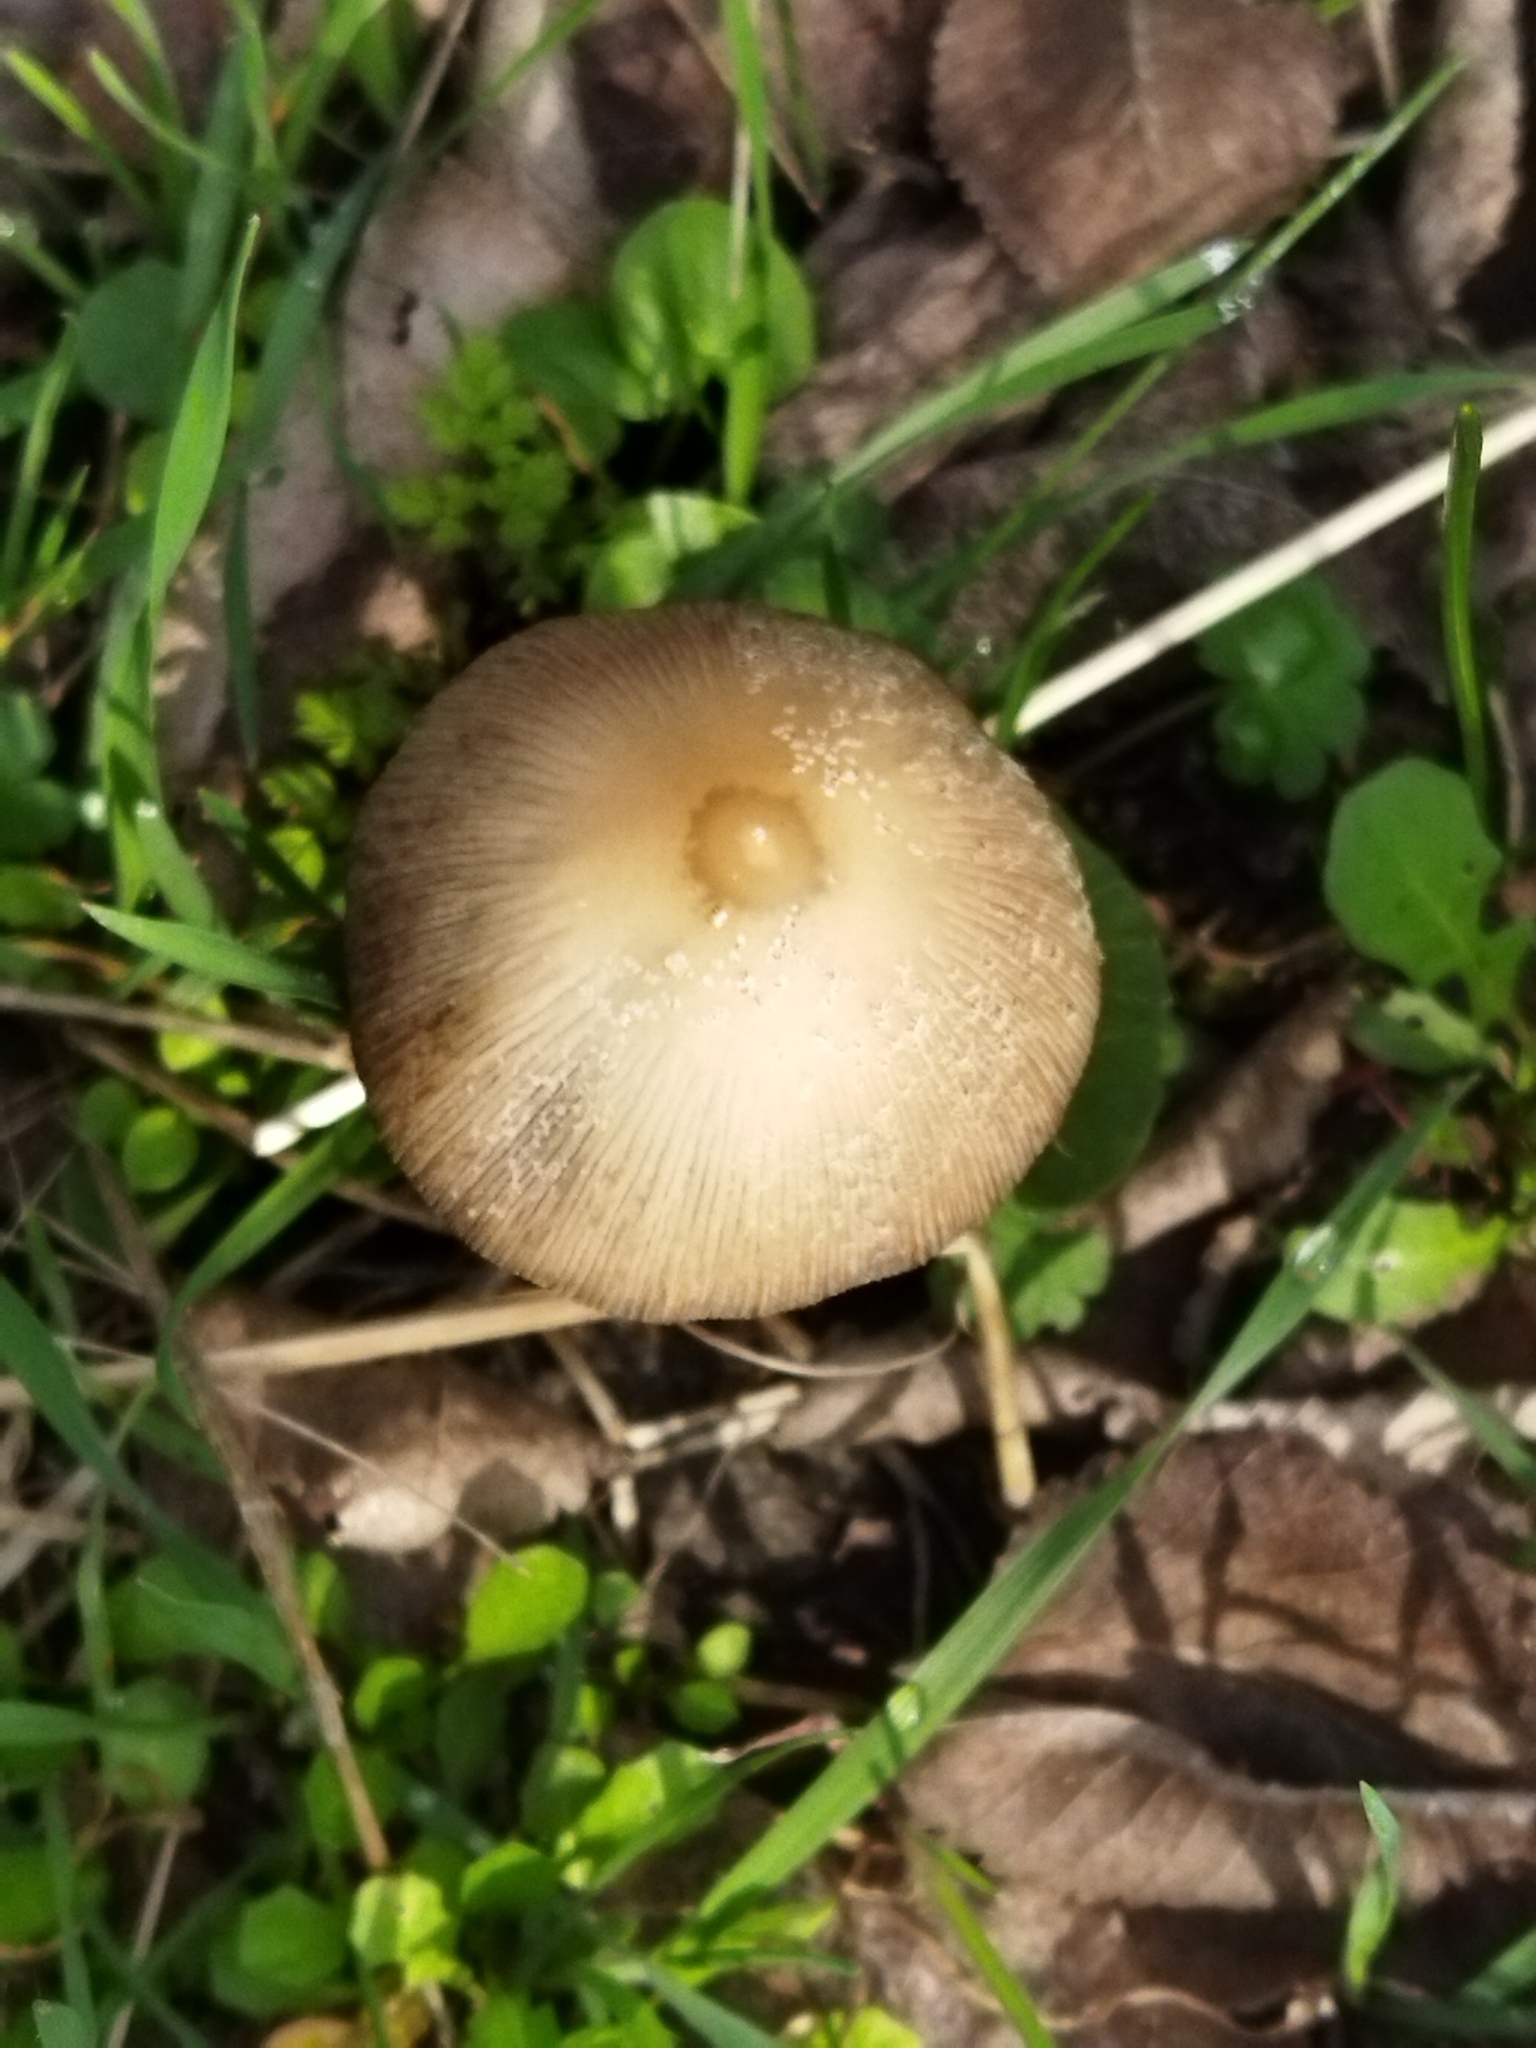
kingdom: Fungi
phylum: Basidiomycota
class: Agaricomycetes
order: Agaricales
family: Psathyrellaceae
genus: Psathyrella
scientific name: Psathyrella
